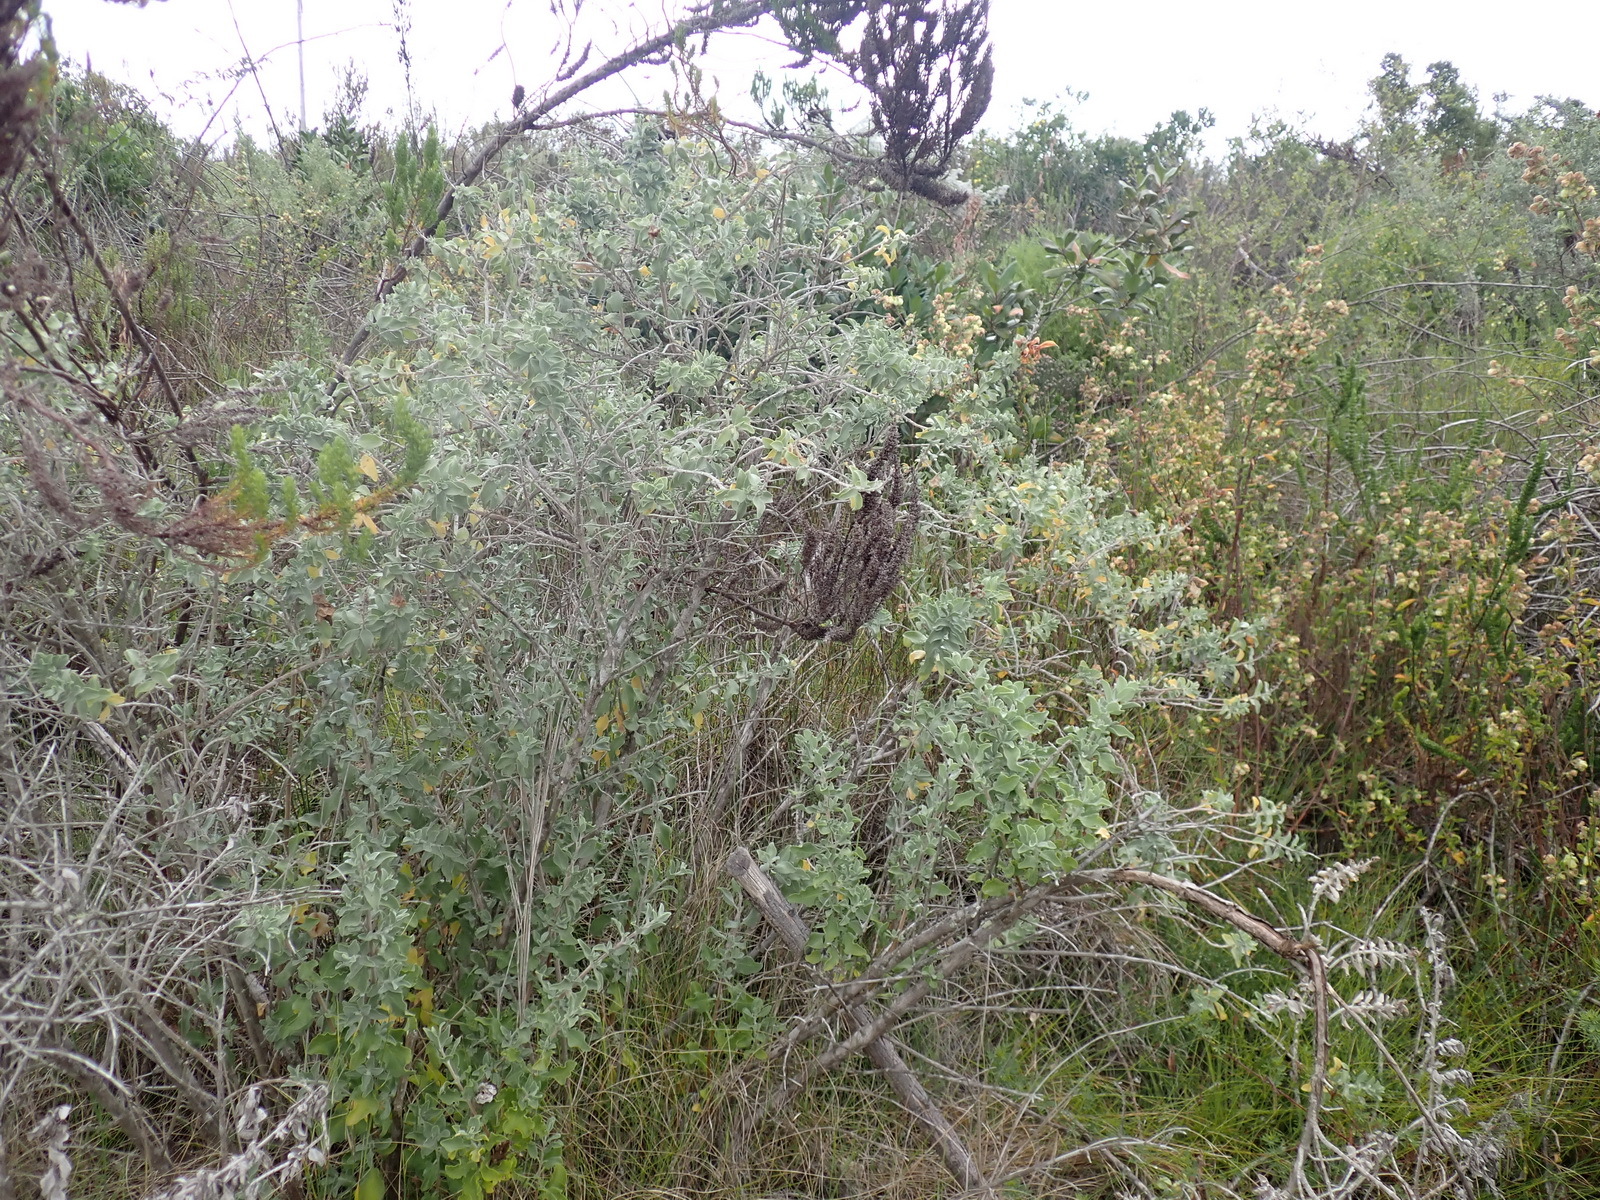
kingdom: Plantae
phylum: Tracheophyta
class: Magnoliopsida
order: Lamiales
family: Lamiaceae
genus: Salvia
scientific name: Salvia aurea
